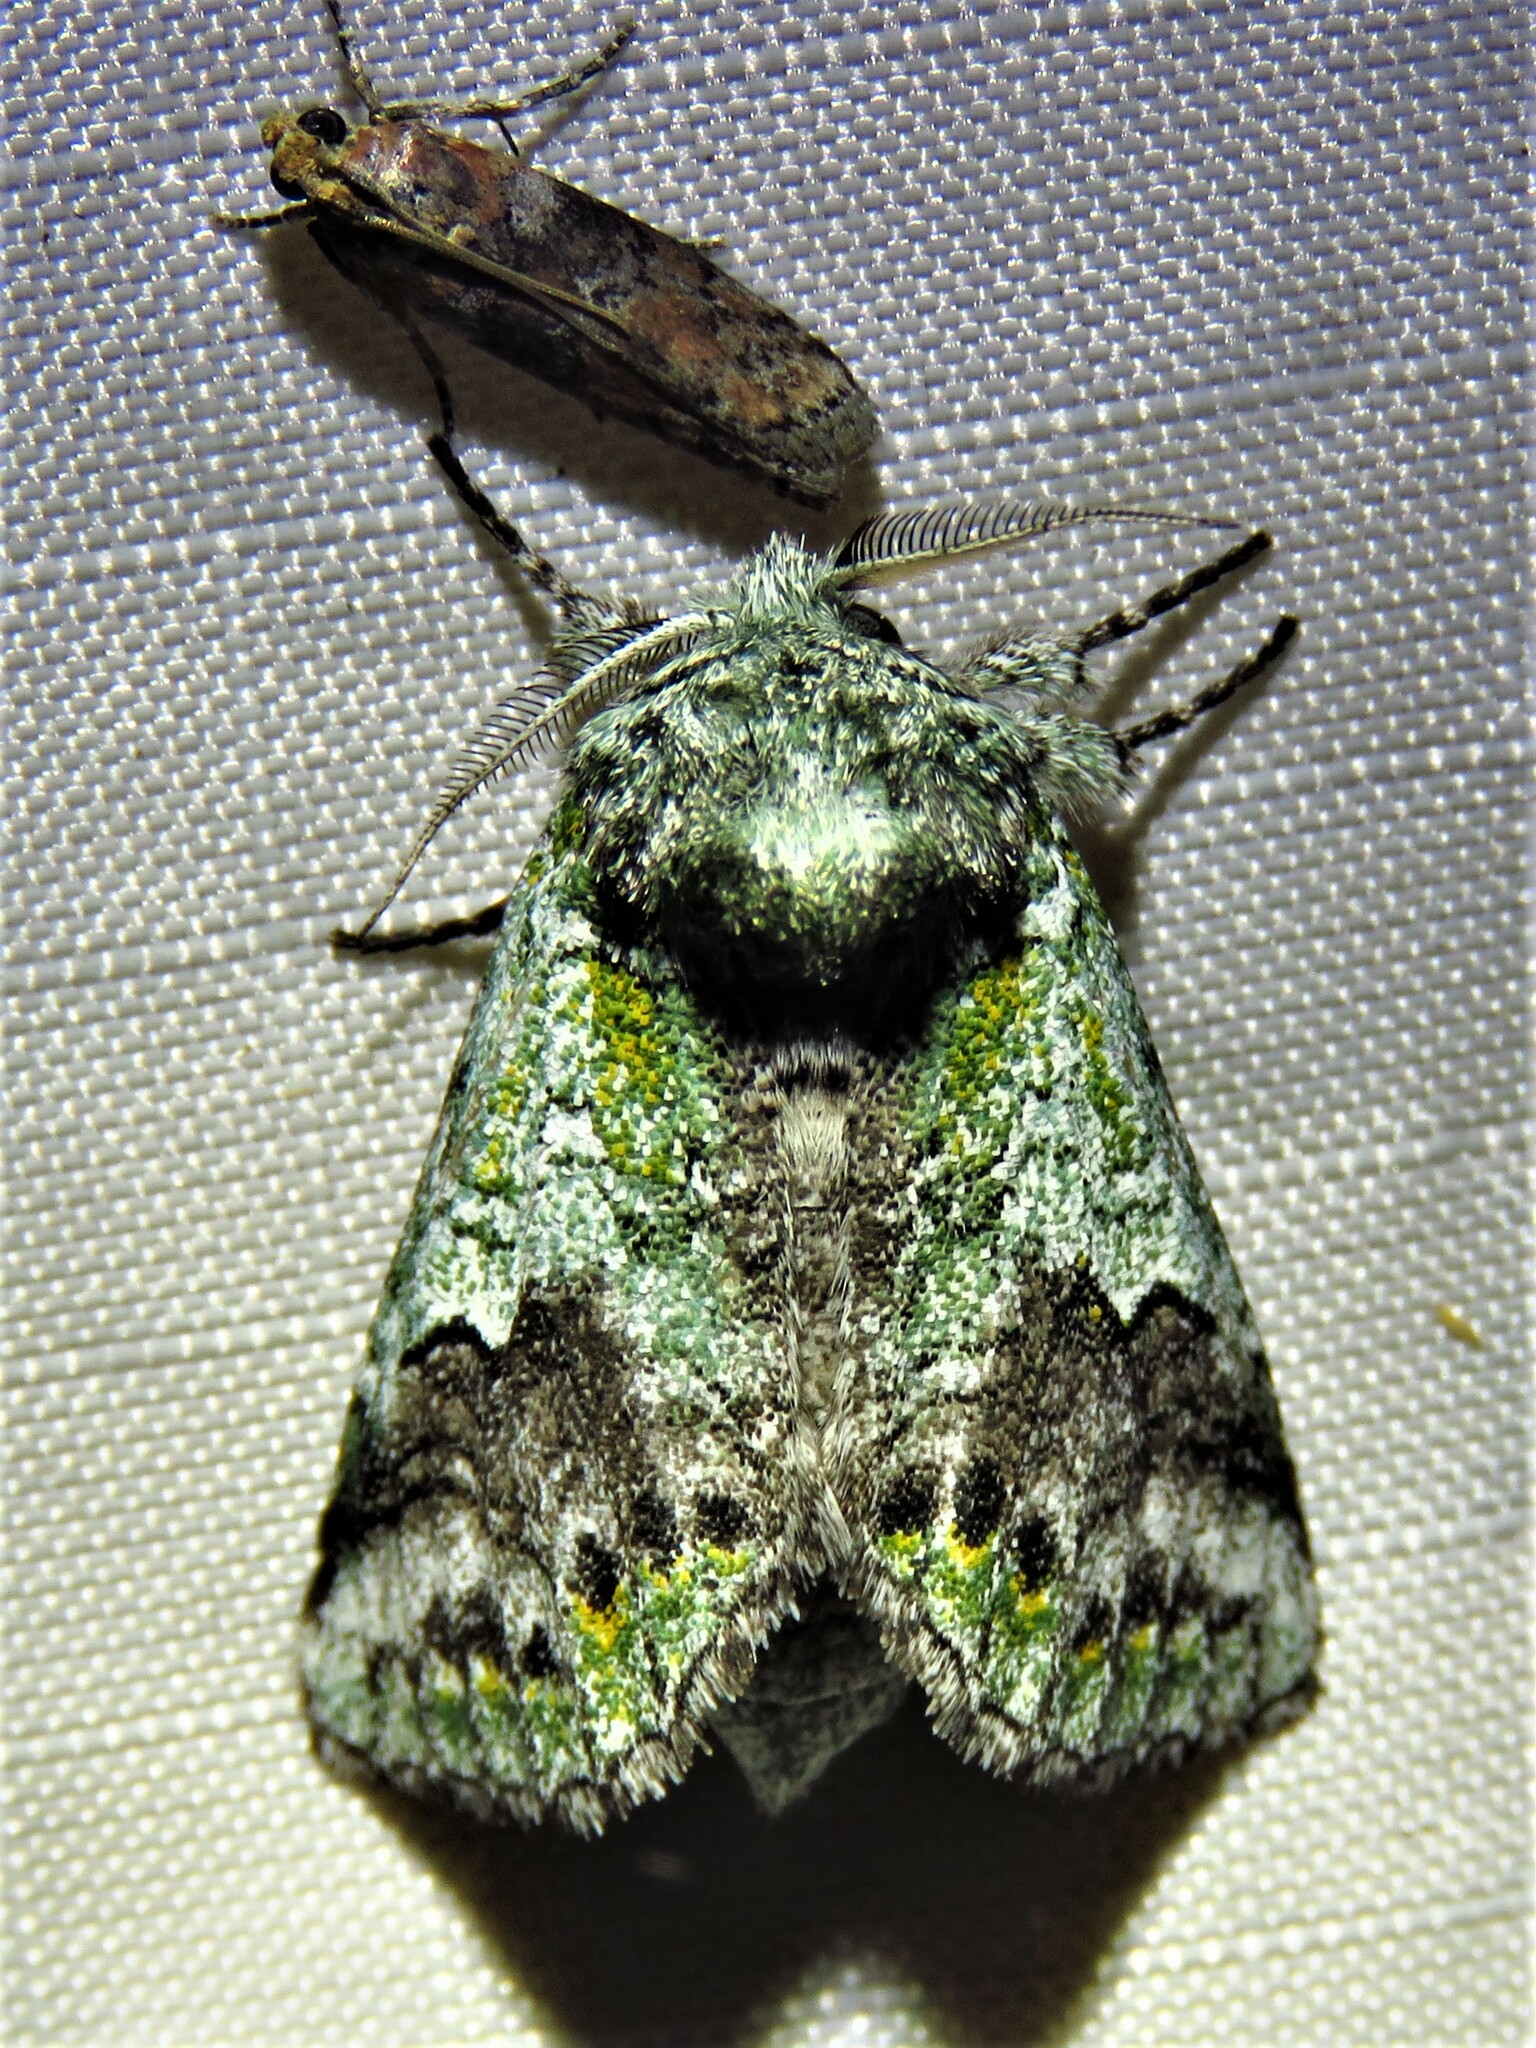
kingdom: Animalia
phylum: Arthropoda
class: Insecta
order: Lepidoptera
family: Notodontidae
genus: Litodonta
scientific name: Litodonta hydromeli
